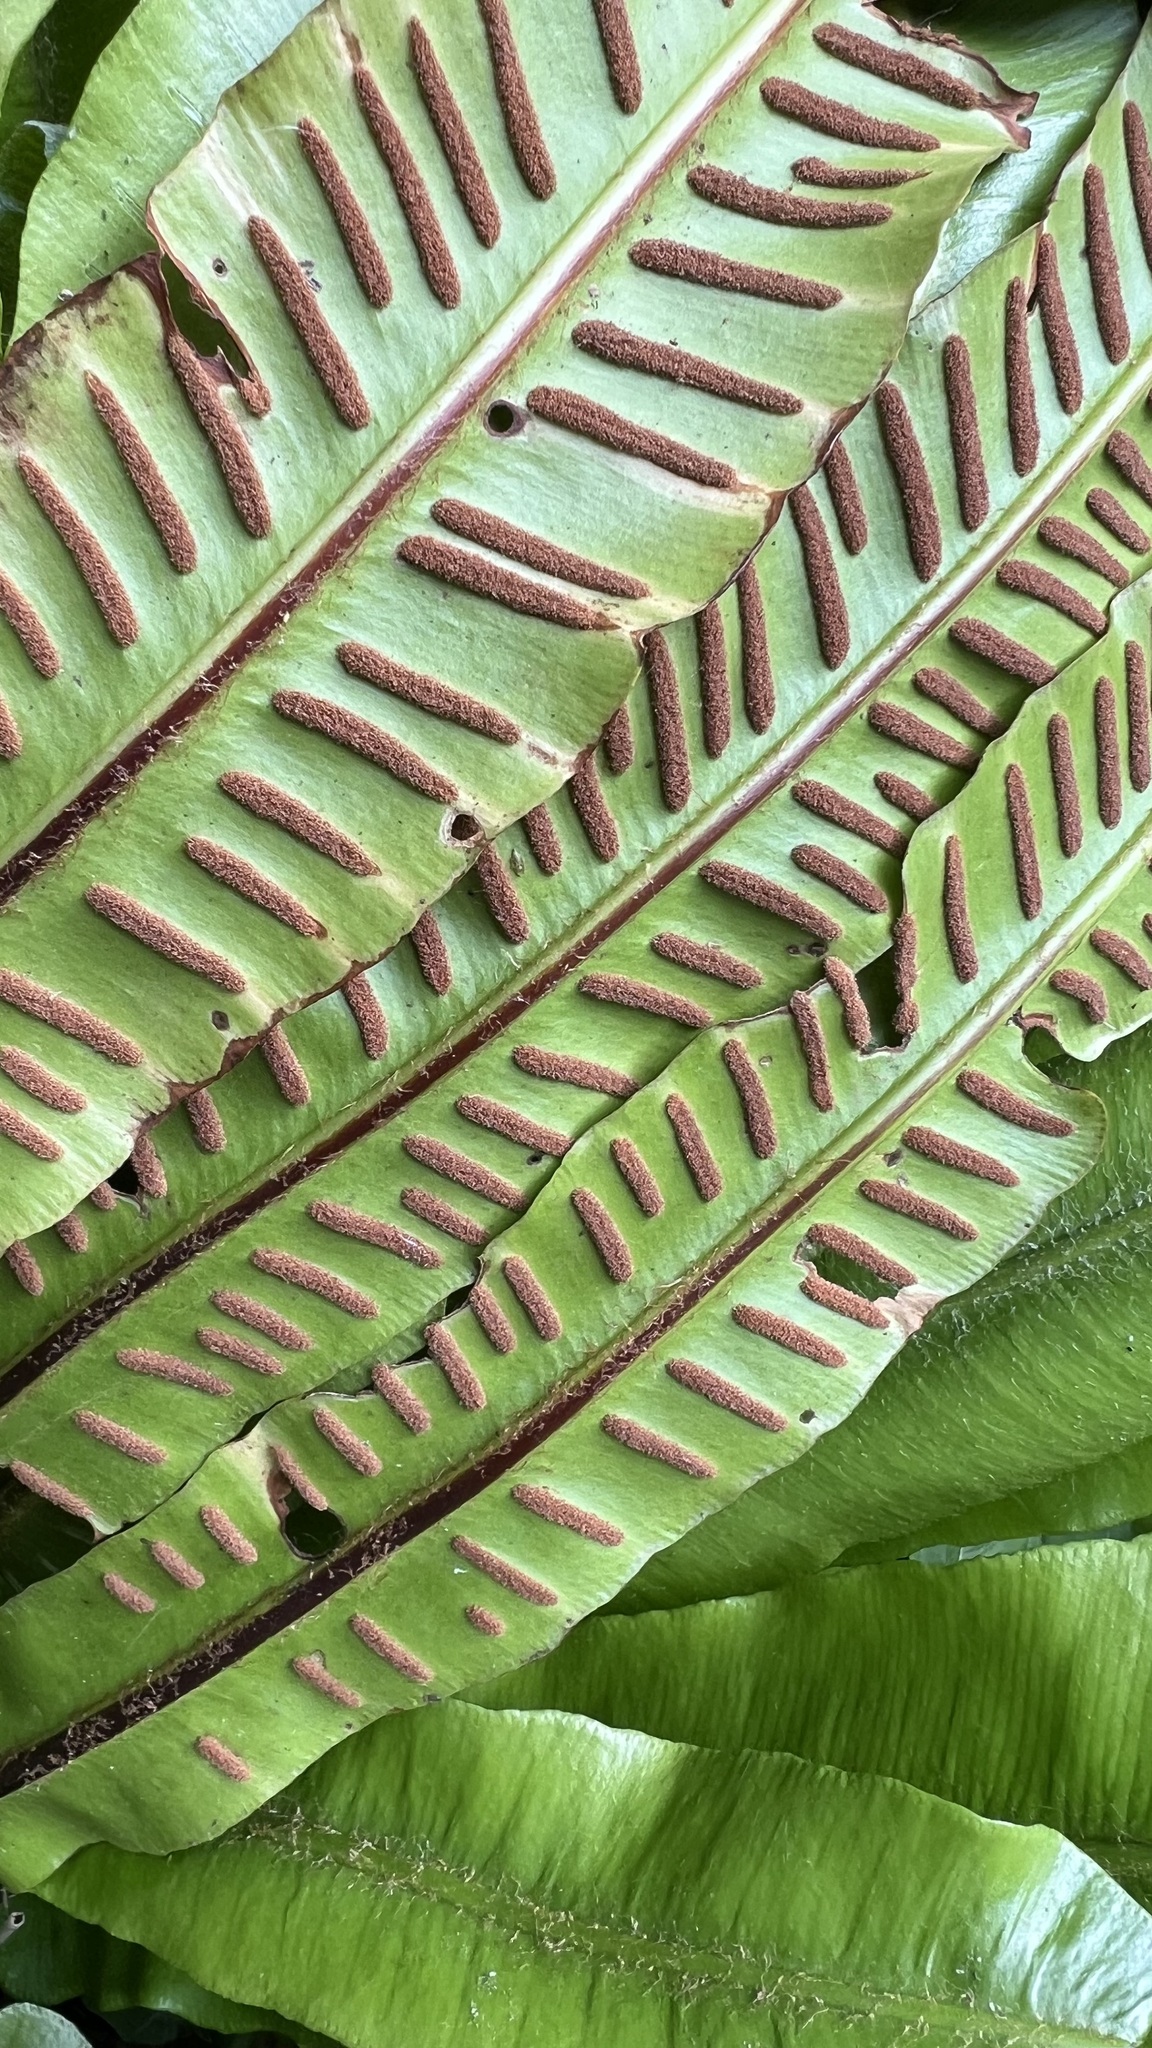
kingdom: Plantae
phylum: Tracheophyta
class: Polypodiopsida
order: Polypodiales
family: Aspleniaceae
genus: Asplenium
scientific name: Asplenium scolopendrium
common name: Hart's-tongue fern
